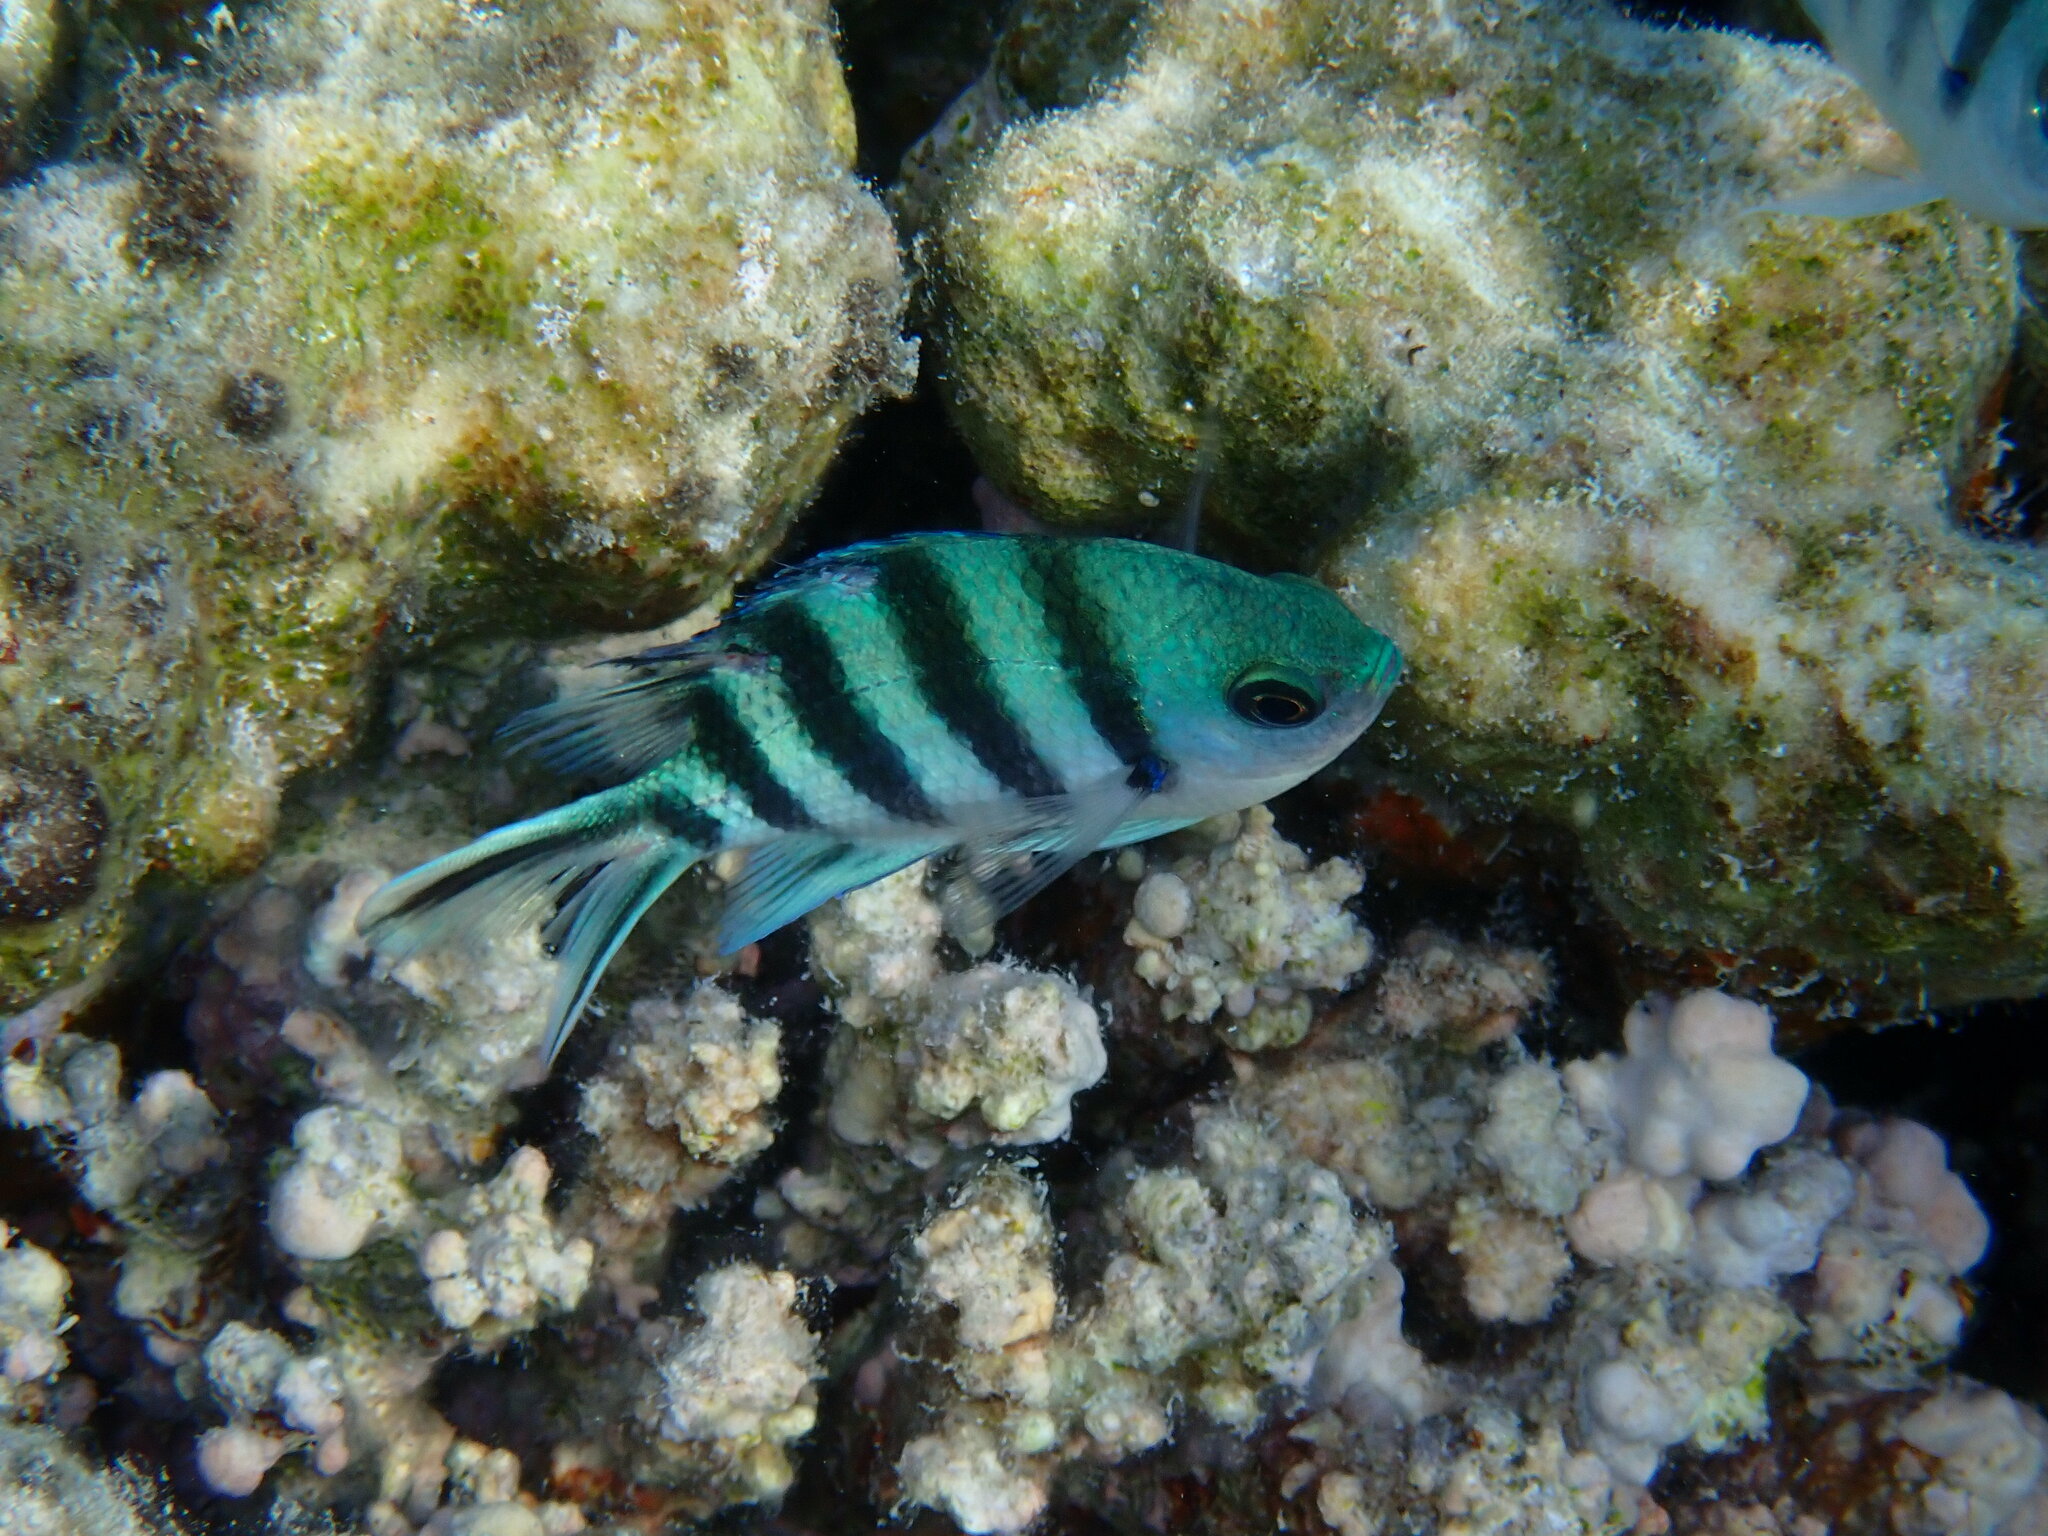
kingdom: Animalia
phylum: Chordata
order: Perciformes
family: Pomacentridae
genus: Abudefduf
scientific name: Abudefduf sexfasciatus
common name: Scissortail sergeant
